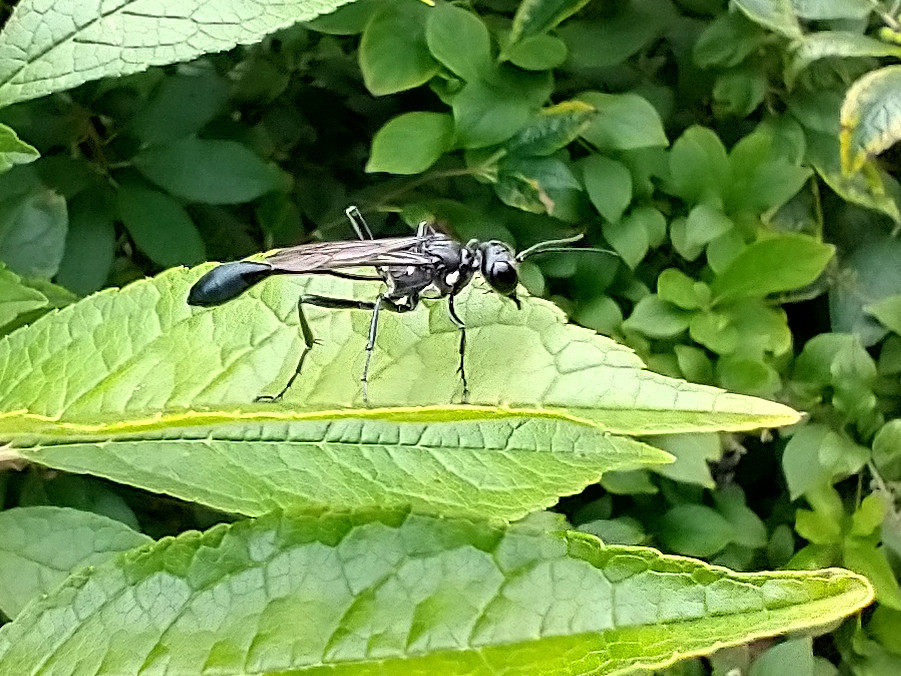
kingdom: Animalia
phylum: Arthropoda
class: Insecta
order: Hymenoptera
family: Sphecidae
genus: Eremnophila
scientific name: Eremnophila aureonotata
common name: Gold-marked thread-waisted wasp
